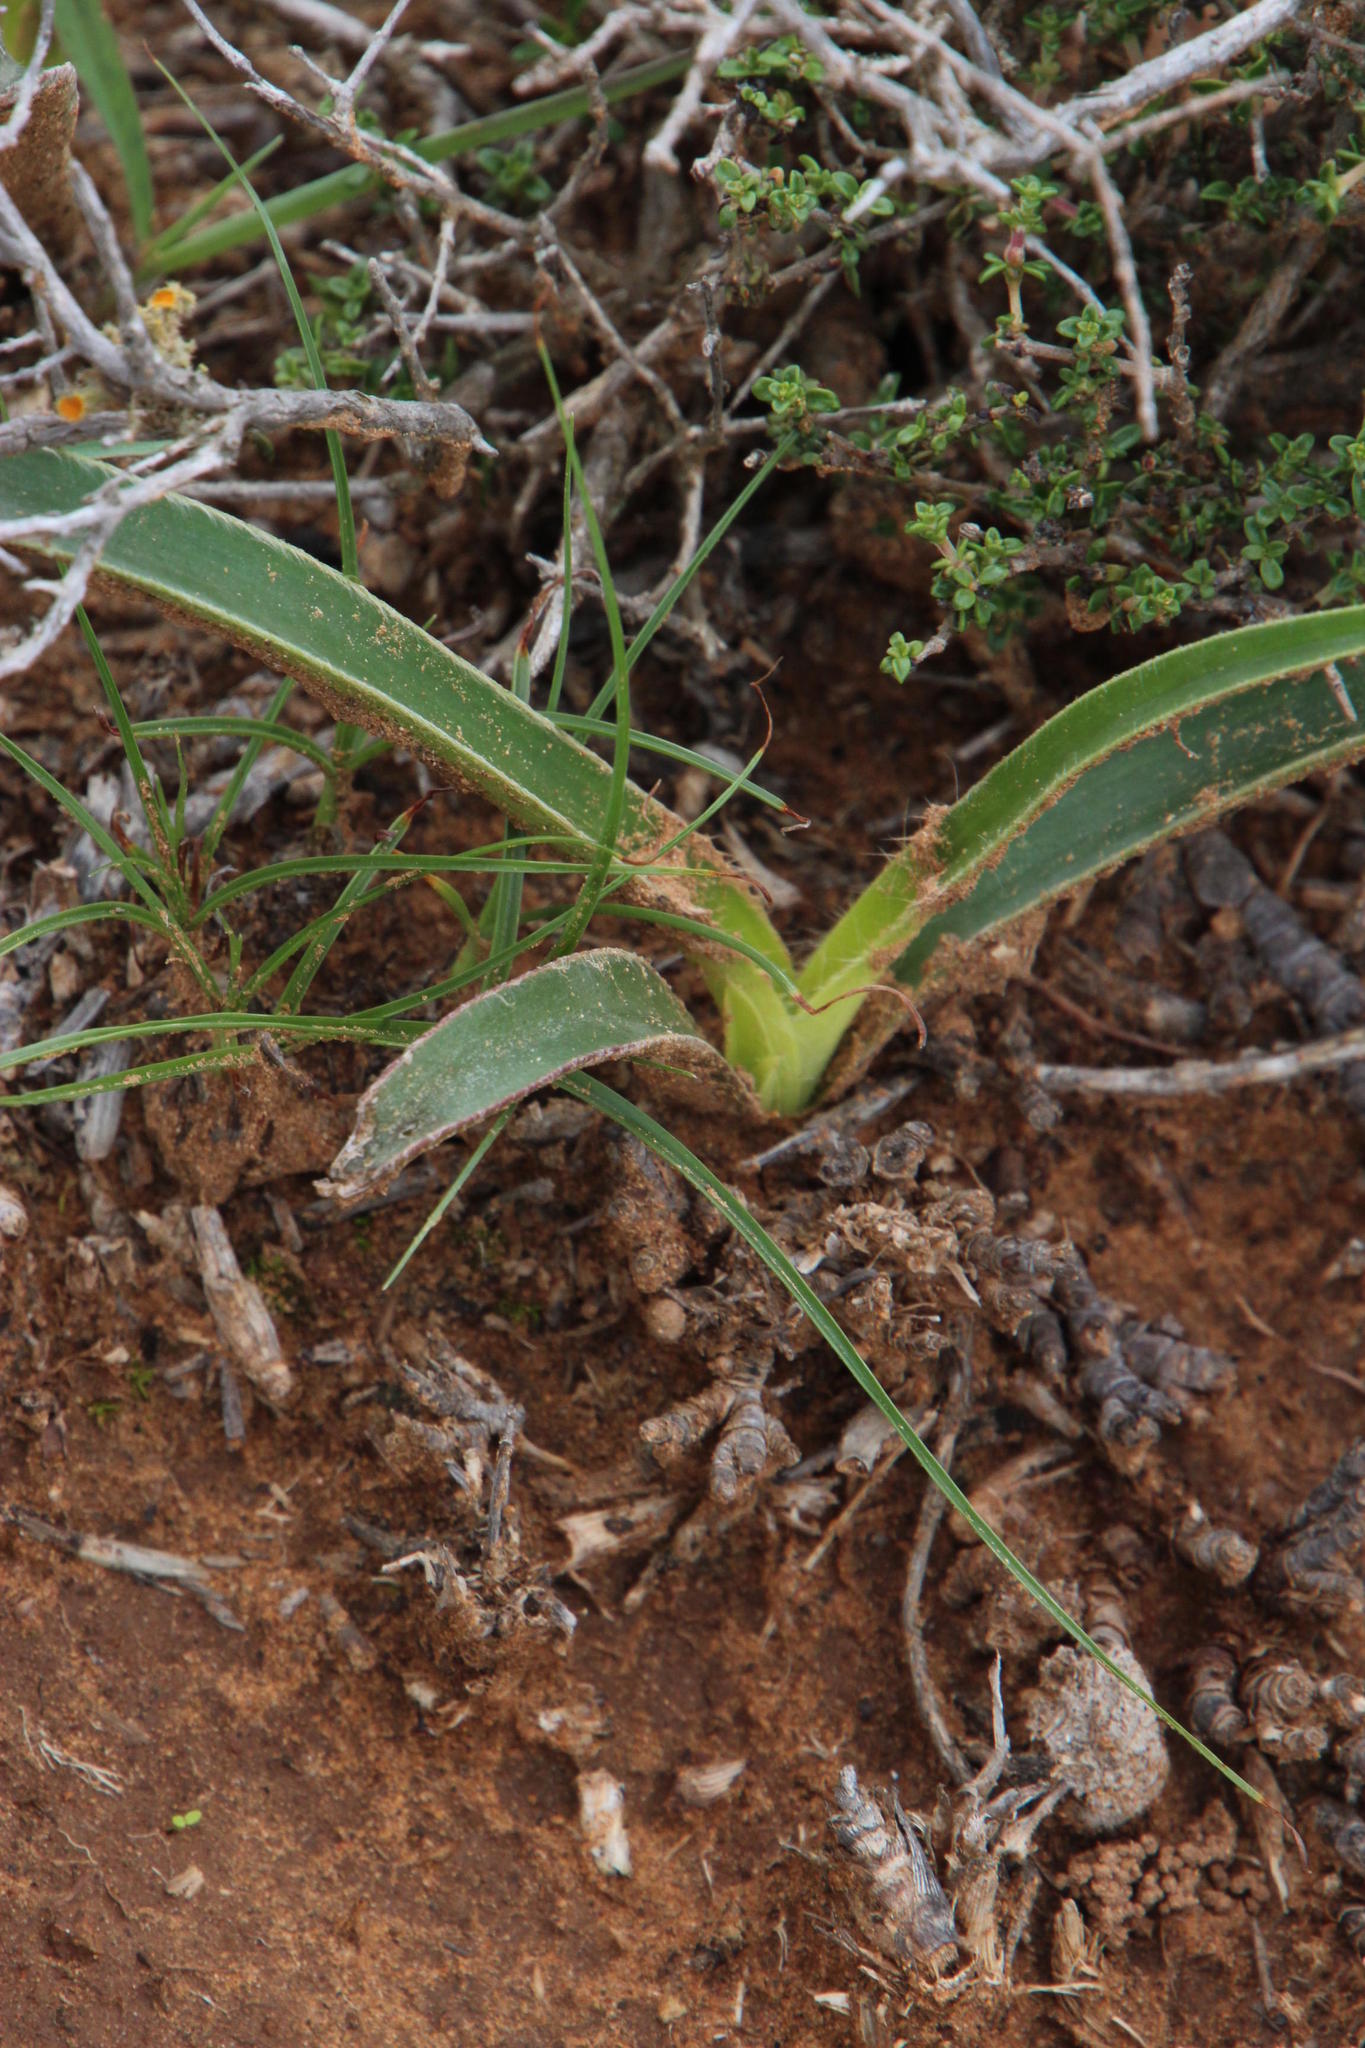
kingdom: Plantae
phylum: Tracheophyta
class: Liliopsida
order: Commelinales
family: Commelinaceae
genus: Cyanotis
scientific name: Cyanotis speciosa
